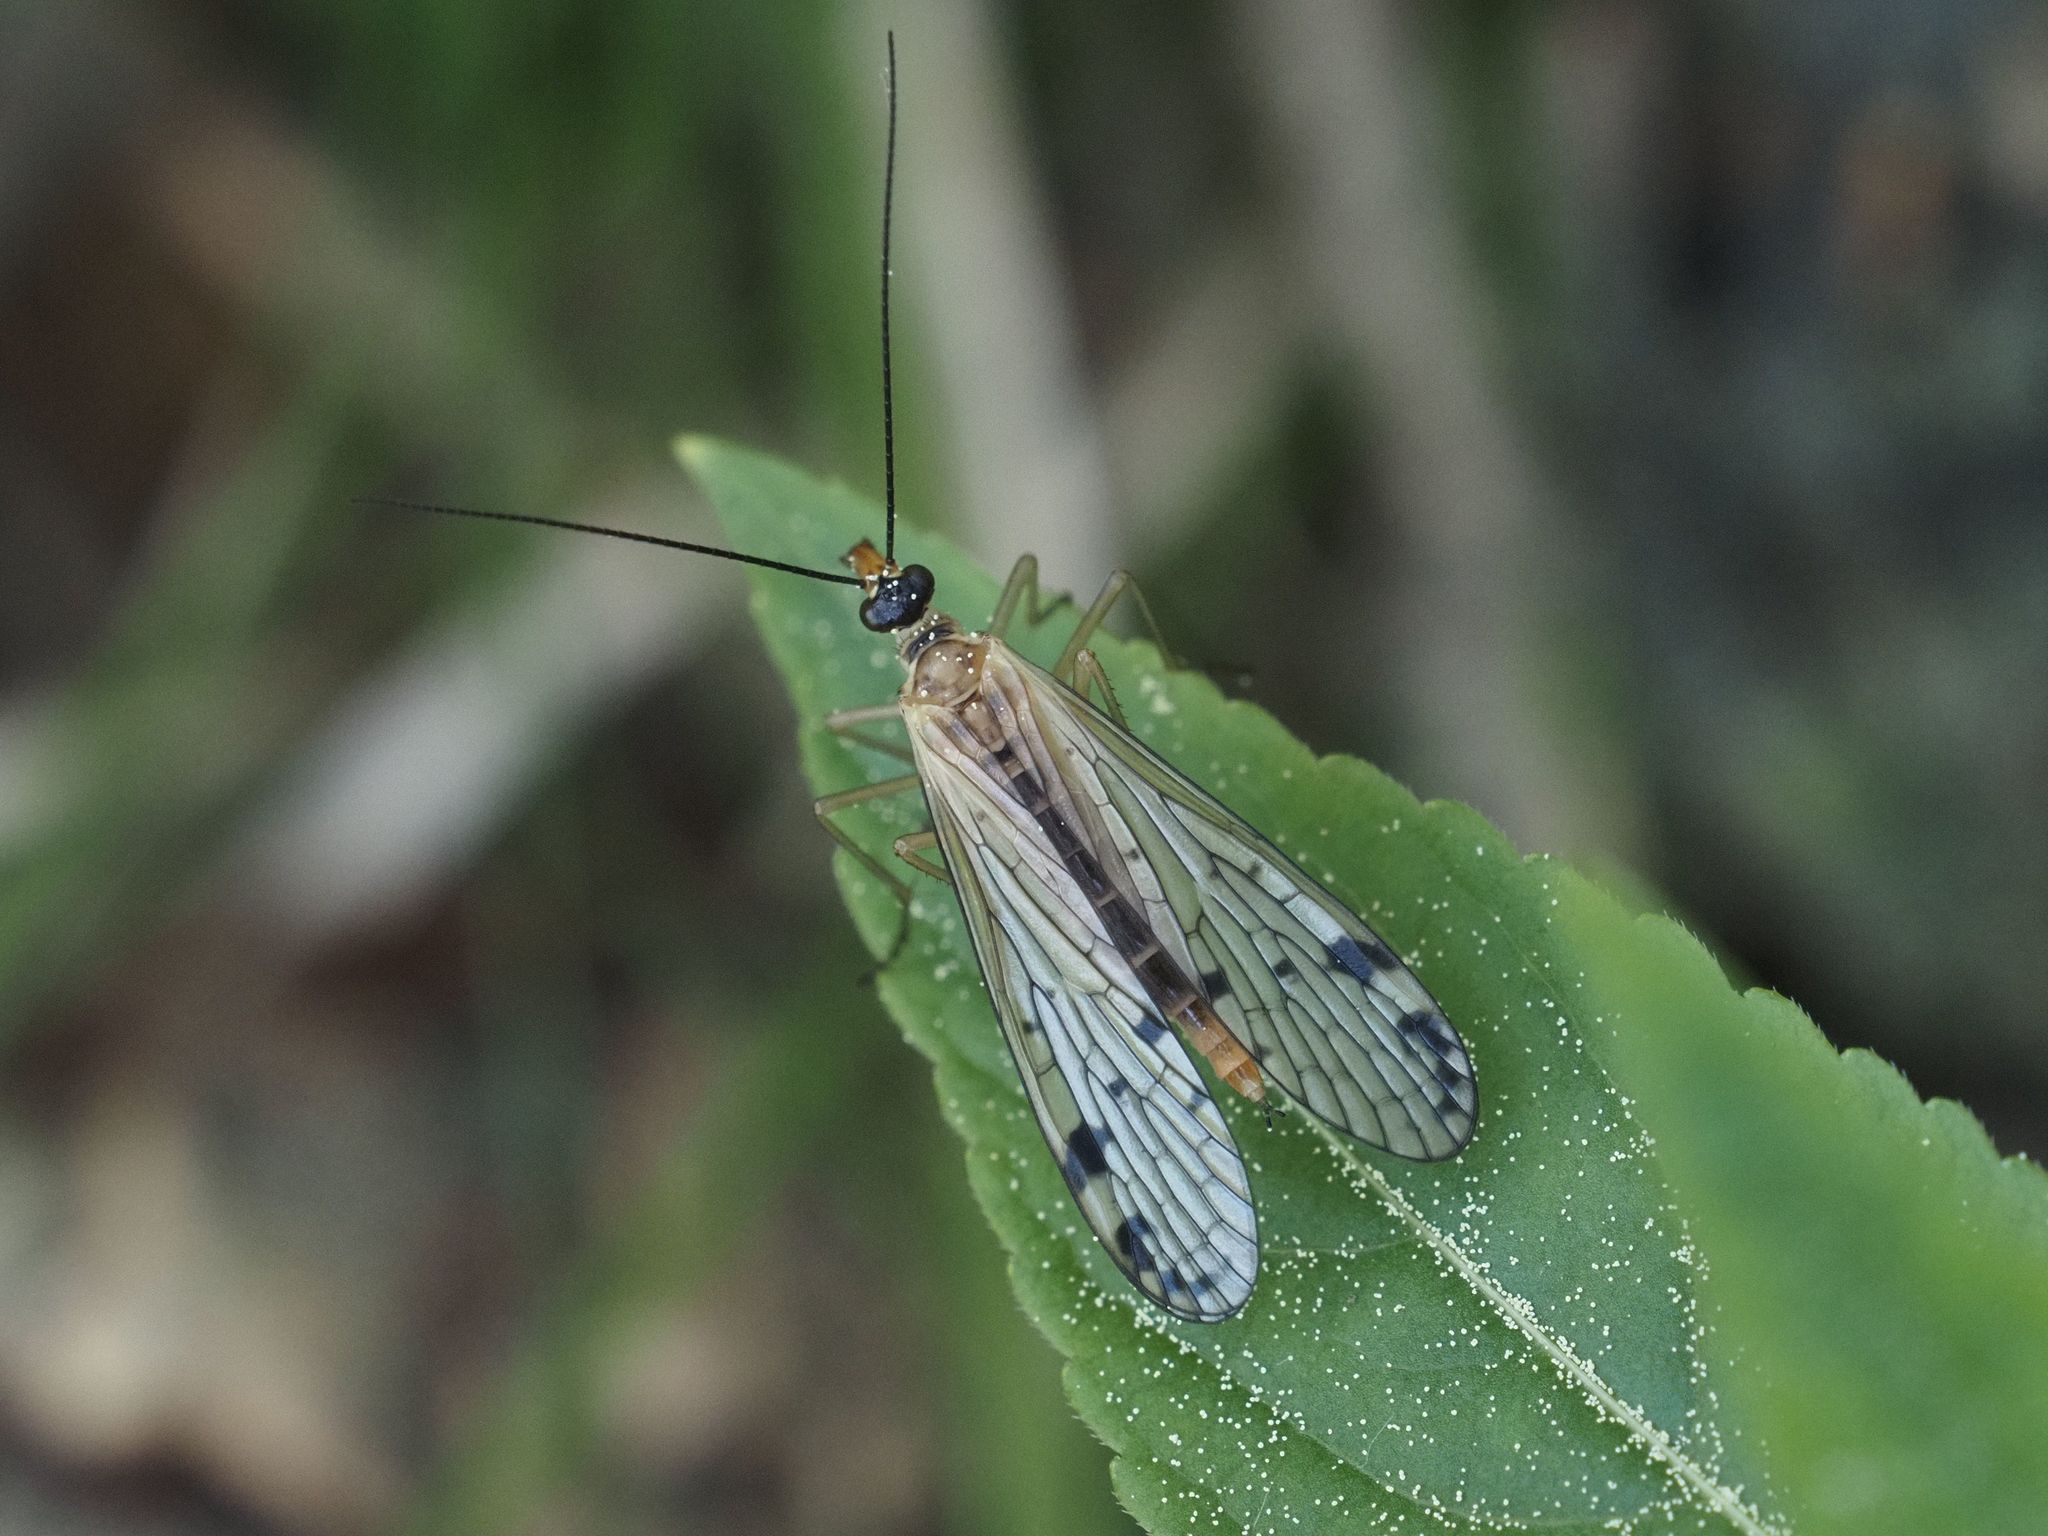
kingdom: Animalia
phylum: Arthropoda
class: Insecta
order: Mecoptera
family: Panorpidae
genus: Panorpa
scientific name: Panorpa alpina
